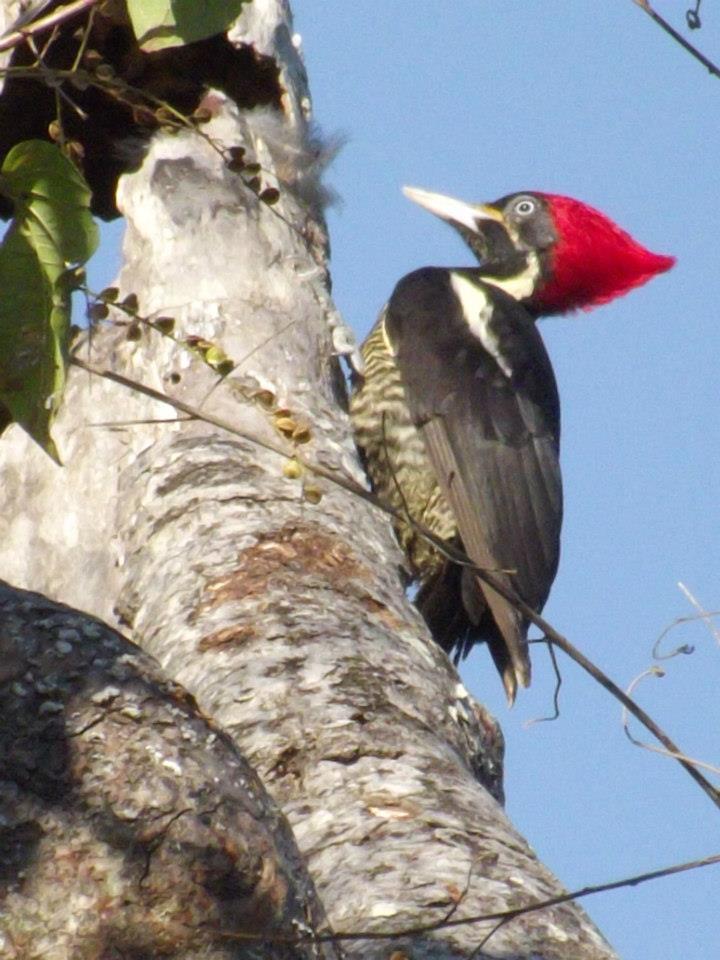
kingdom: Animalia
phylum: Chordata
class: Aves
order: Piciformes
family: Picidae
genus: Dryocopus
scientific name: Dryocopus lineatus
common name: Lineated woodpecker
